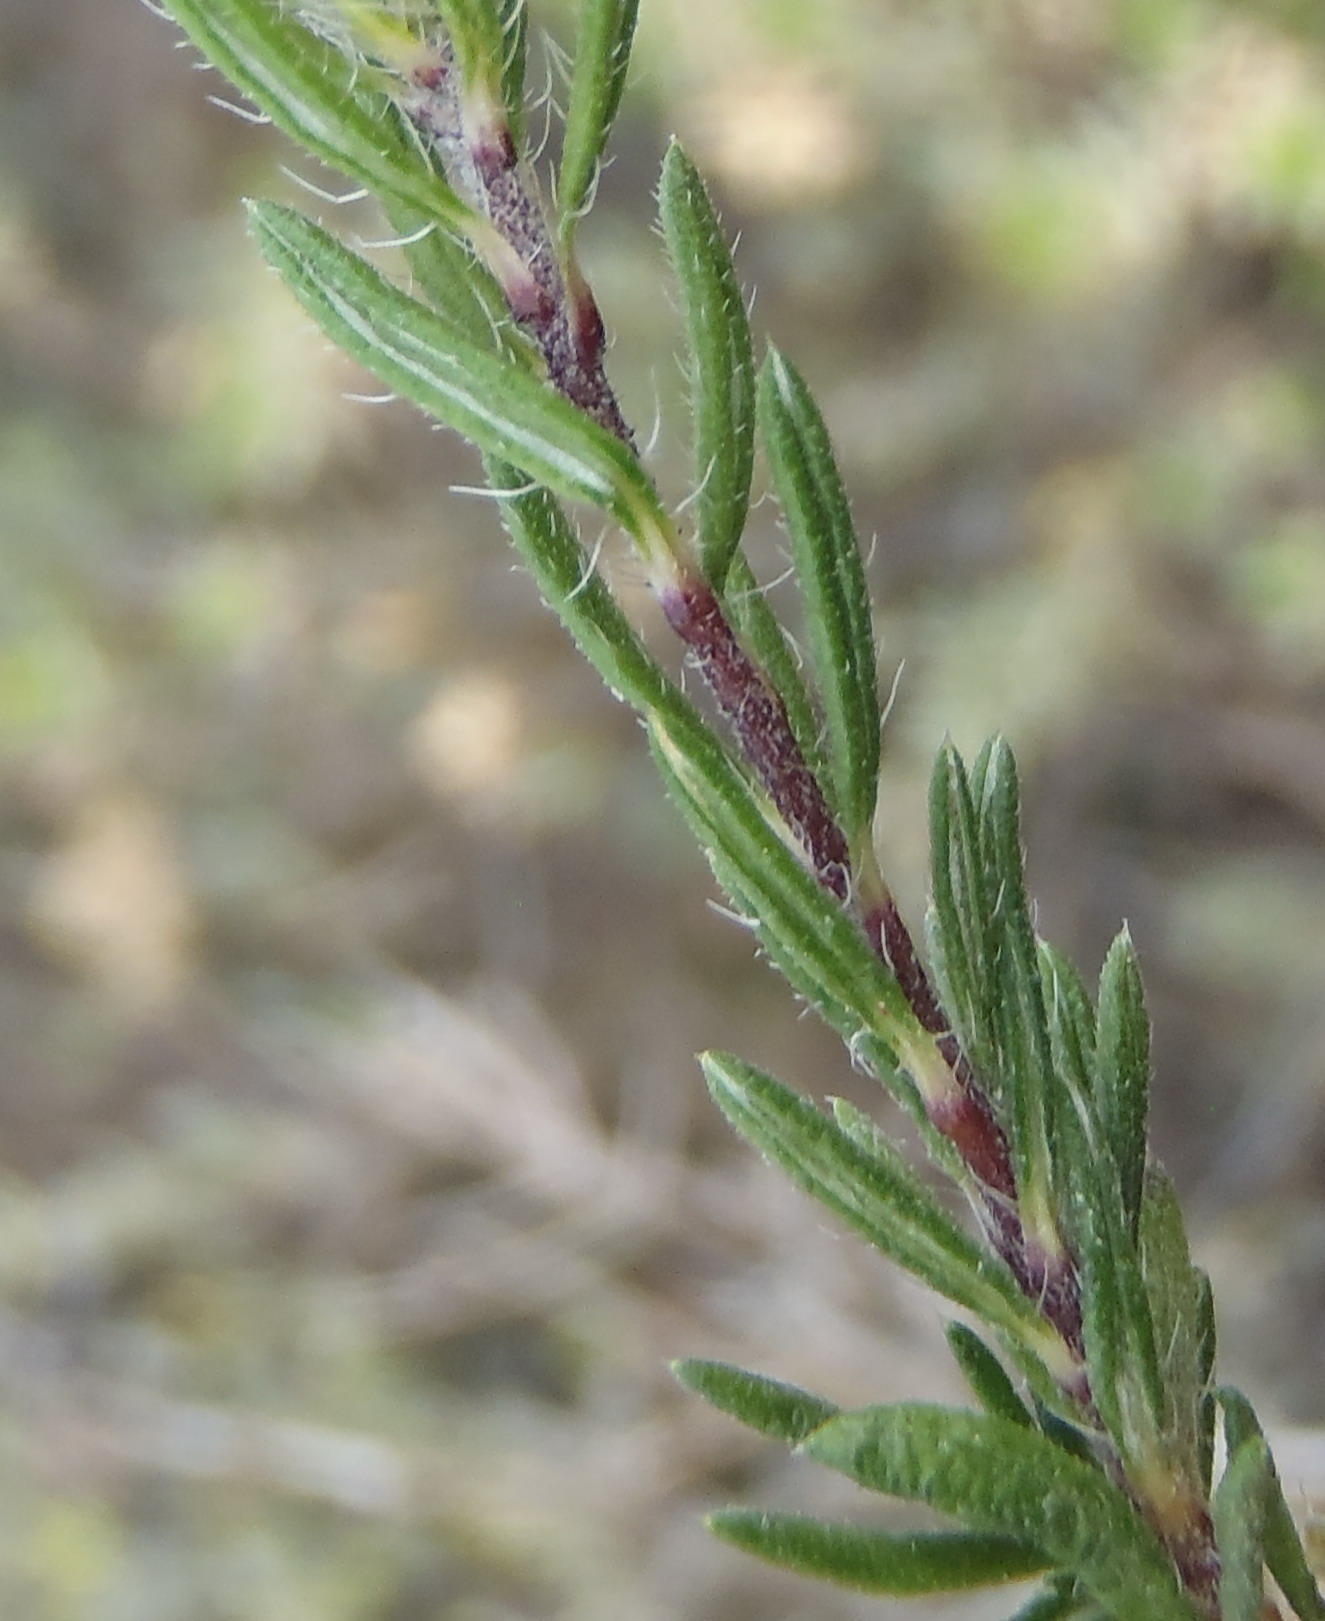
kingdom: Plantae
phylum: Tracheophyta
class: Magnoliopsida
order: Asterales
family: Asteraceae
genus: Hirpicium
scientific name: Hirpicium integrifolium
